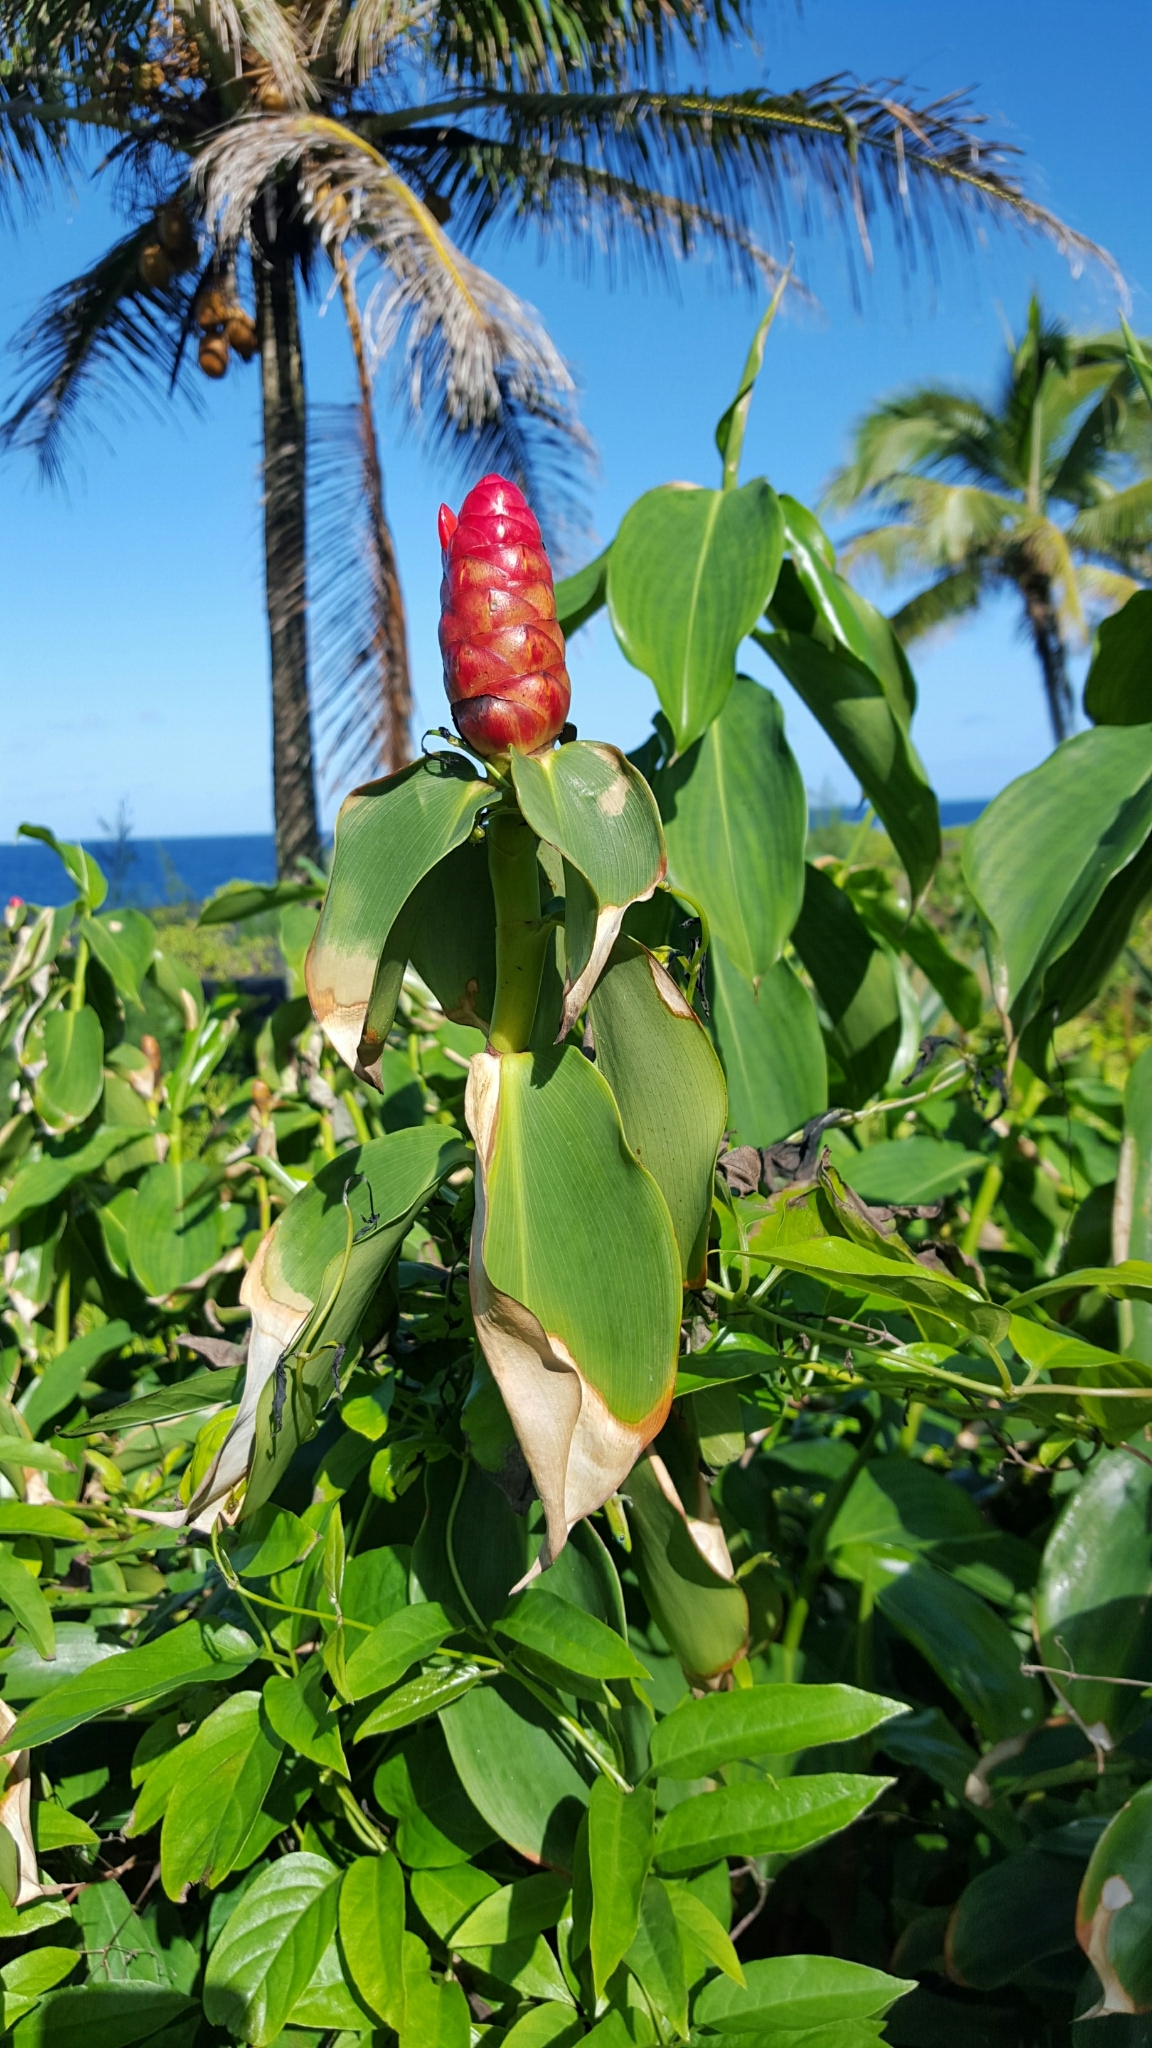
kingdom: Plantae
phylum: Tracheophyta
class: Liliopsida
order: Zingiberales
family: Costaceae
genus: Costus
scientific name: Costus woodsonii
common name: Scarlet spiral-ginger
